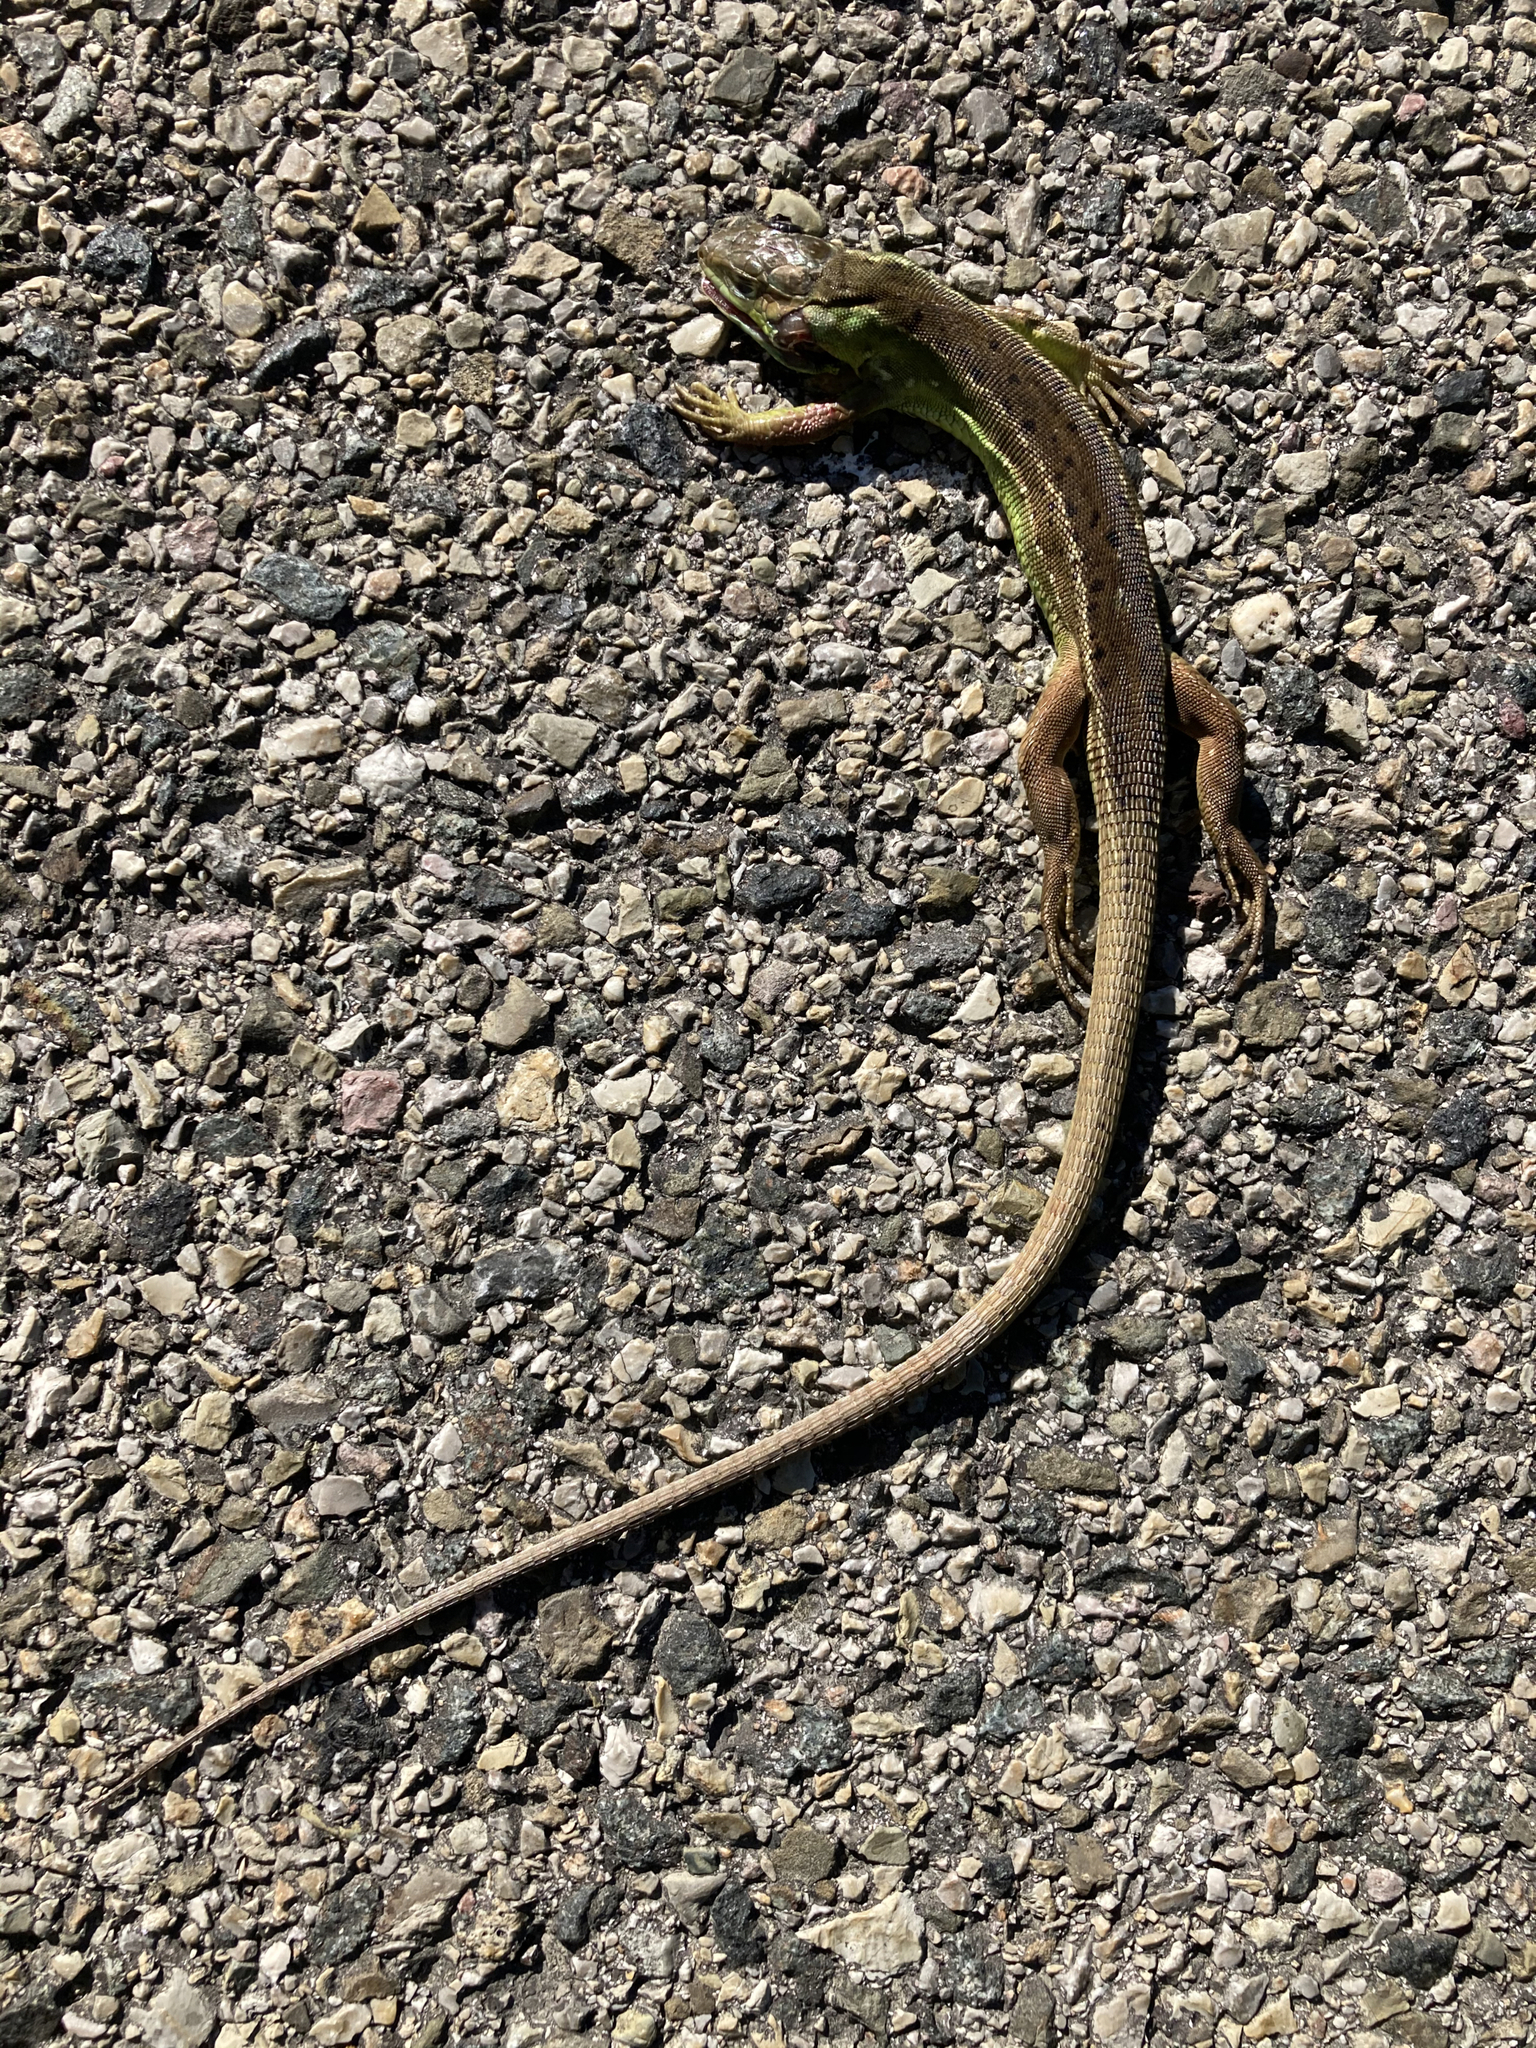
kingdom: Animalia
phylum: Chordata
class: Squamata
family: Lacertidae
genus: Lacerta
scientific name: Lacerta bilineata
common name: Western green lizard
